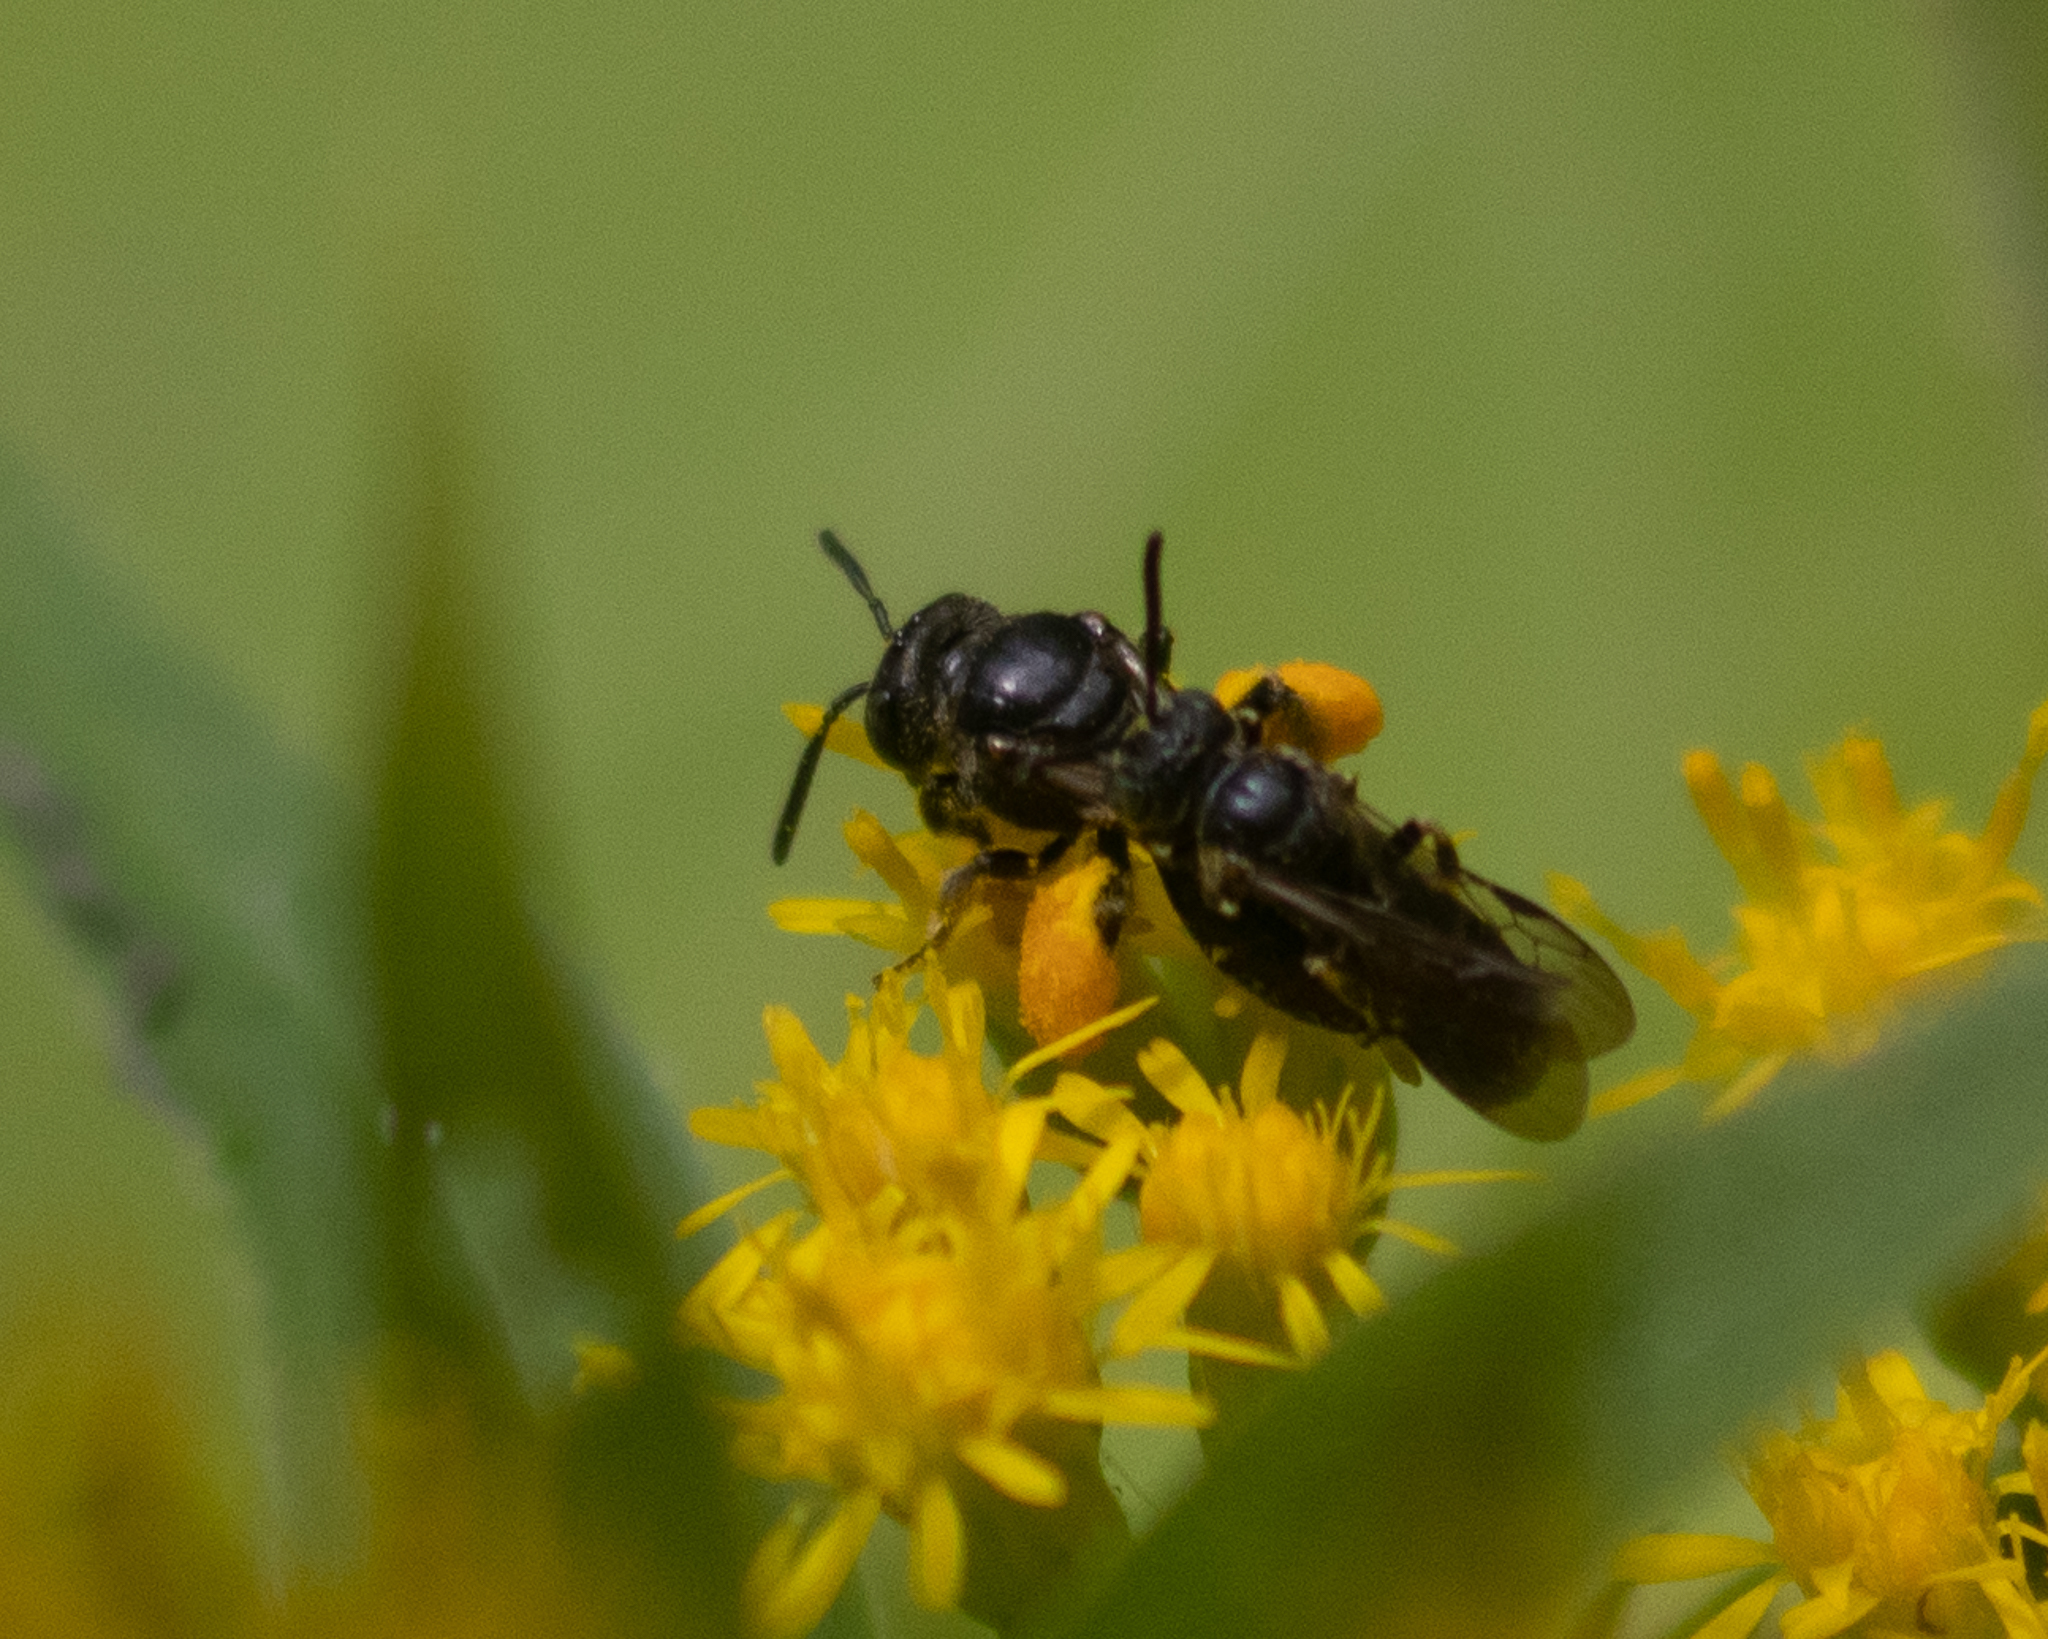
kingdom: Animalia
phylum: Arthropoda
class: Insecta
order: Hymenoptera
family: Andrenidae
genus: Protandrena
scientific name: Protandrena
